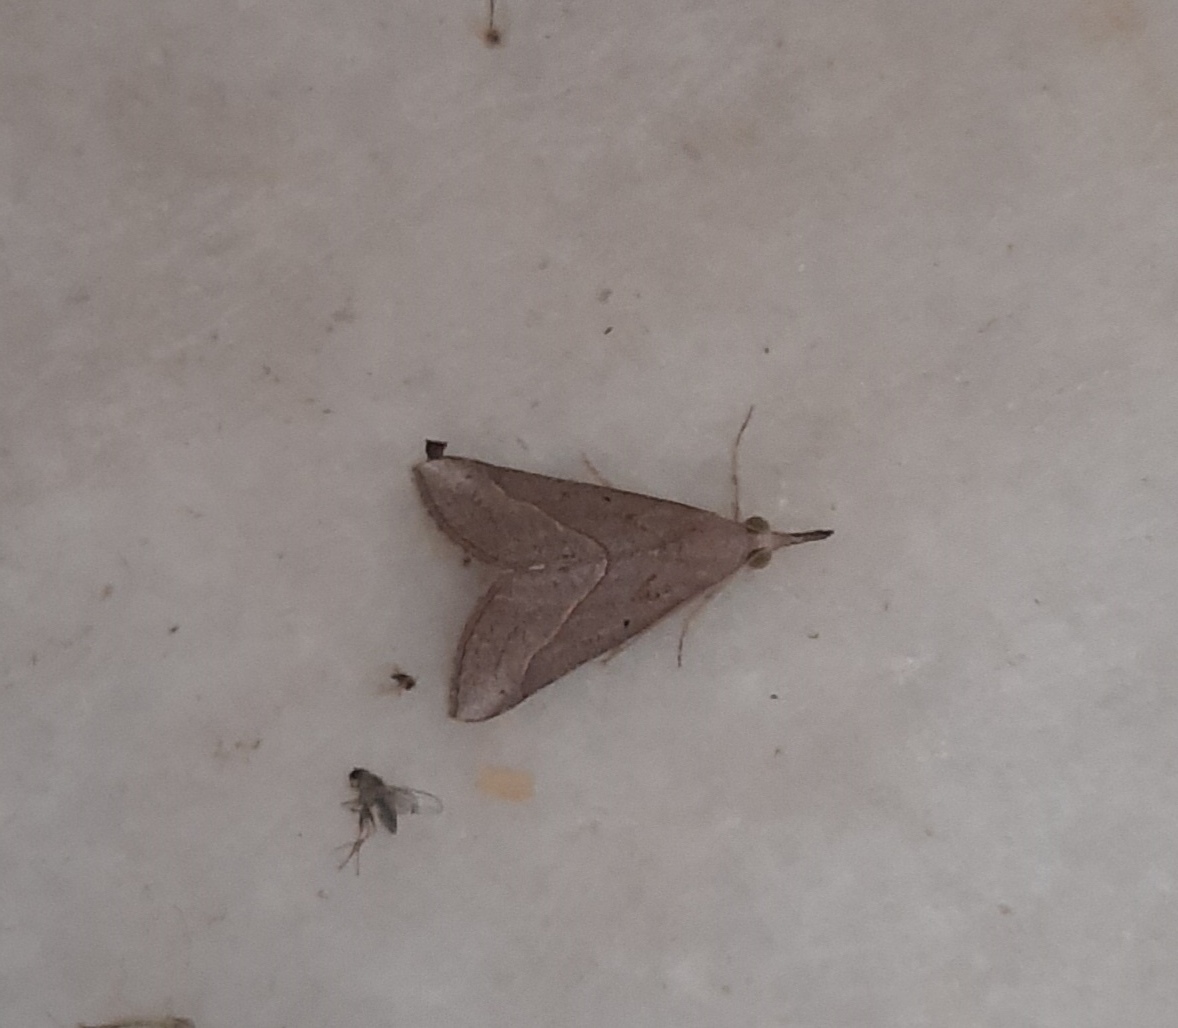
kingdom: Animalia
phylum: Arthropoda
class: Insecta
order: Lepidoptera
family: Erebidae
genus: Hypena
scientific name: Hypena lividalis
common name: Chevron snout
